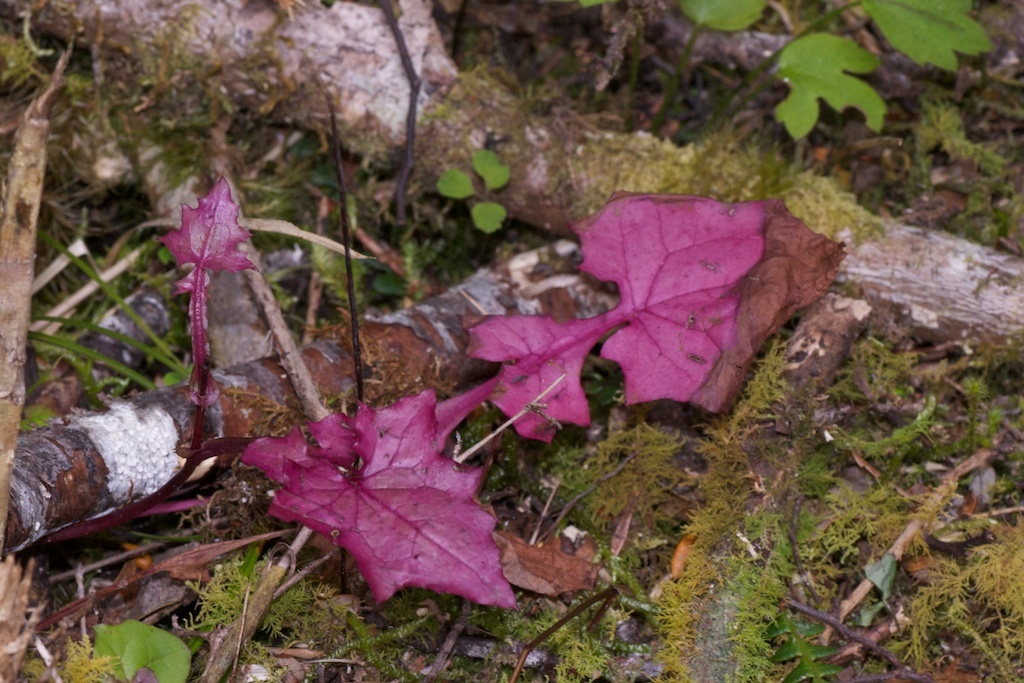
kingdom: Plantae
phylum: Tracheophyta
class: Magnoliopsida
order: Asterales
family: Asteraceae
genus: Mycelis
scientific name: Mycelis muralis
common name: Wall lettuce
